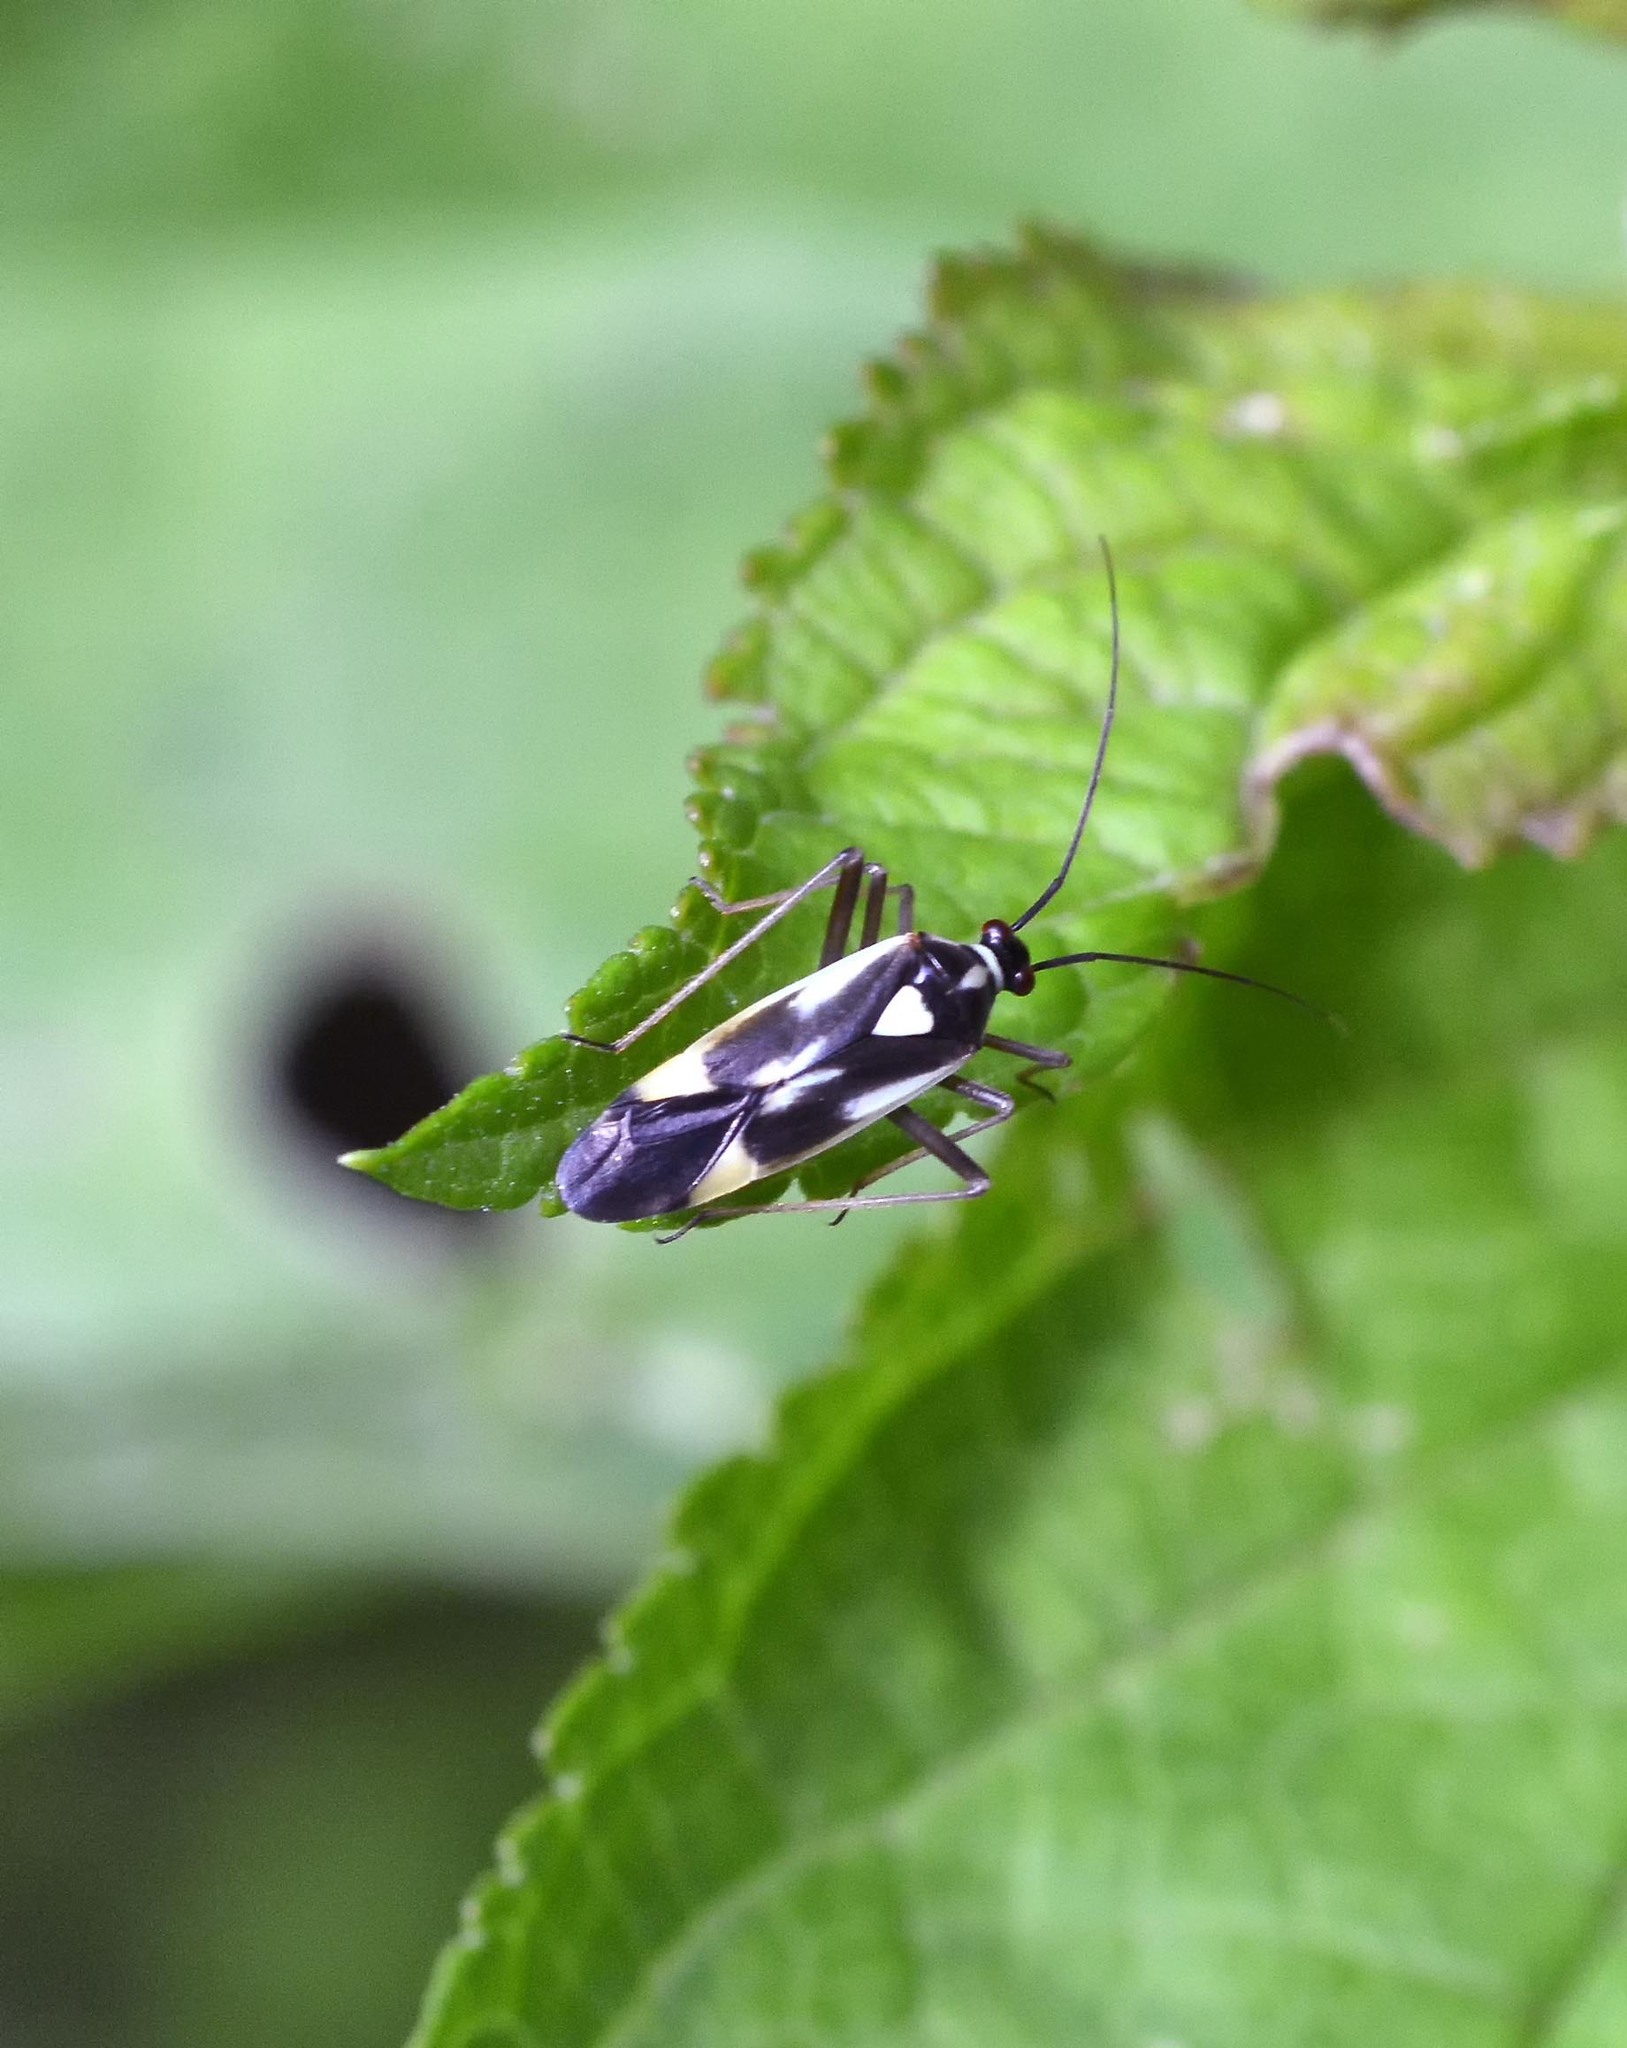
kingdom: Animalia
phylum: Arthropoda
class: Insecta
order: Hemiptera
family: Miridae
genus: Grypocoris
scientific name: Grypocoris stysi
